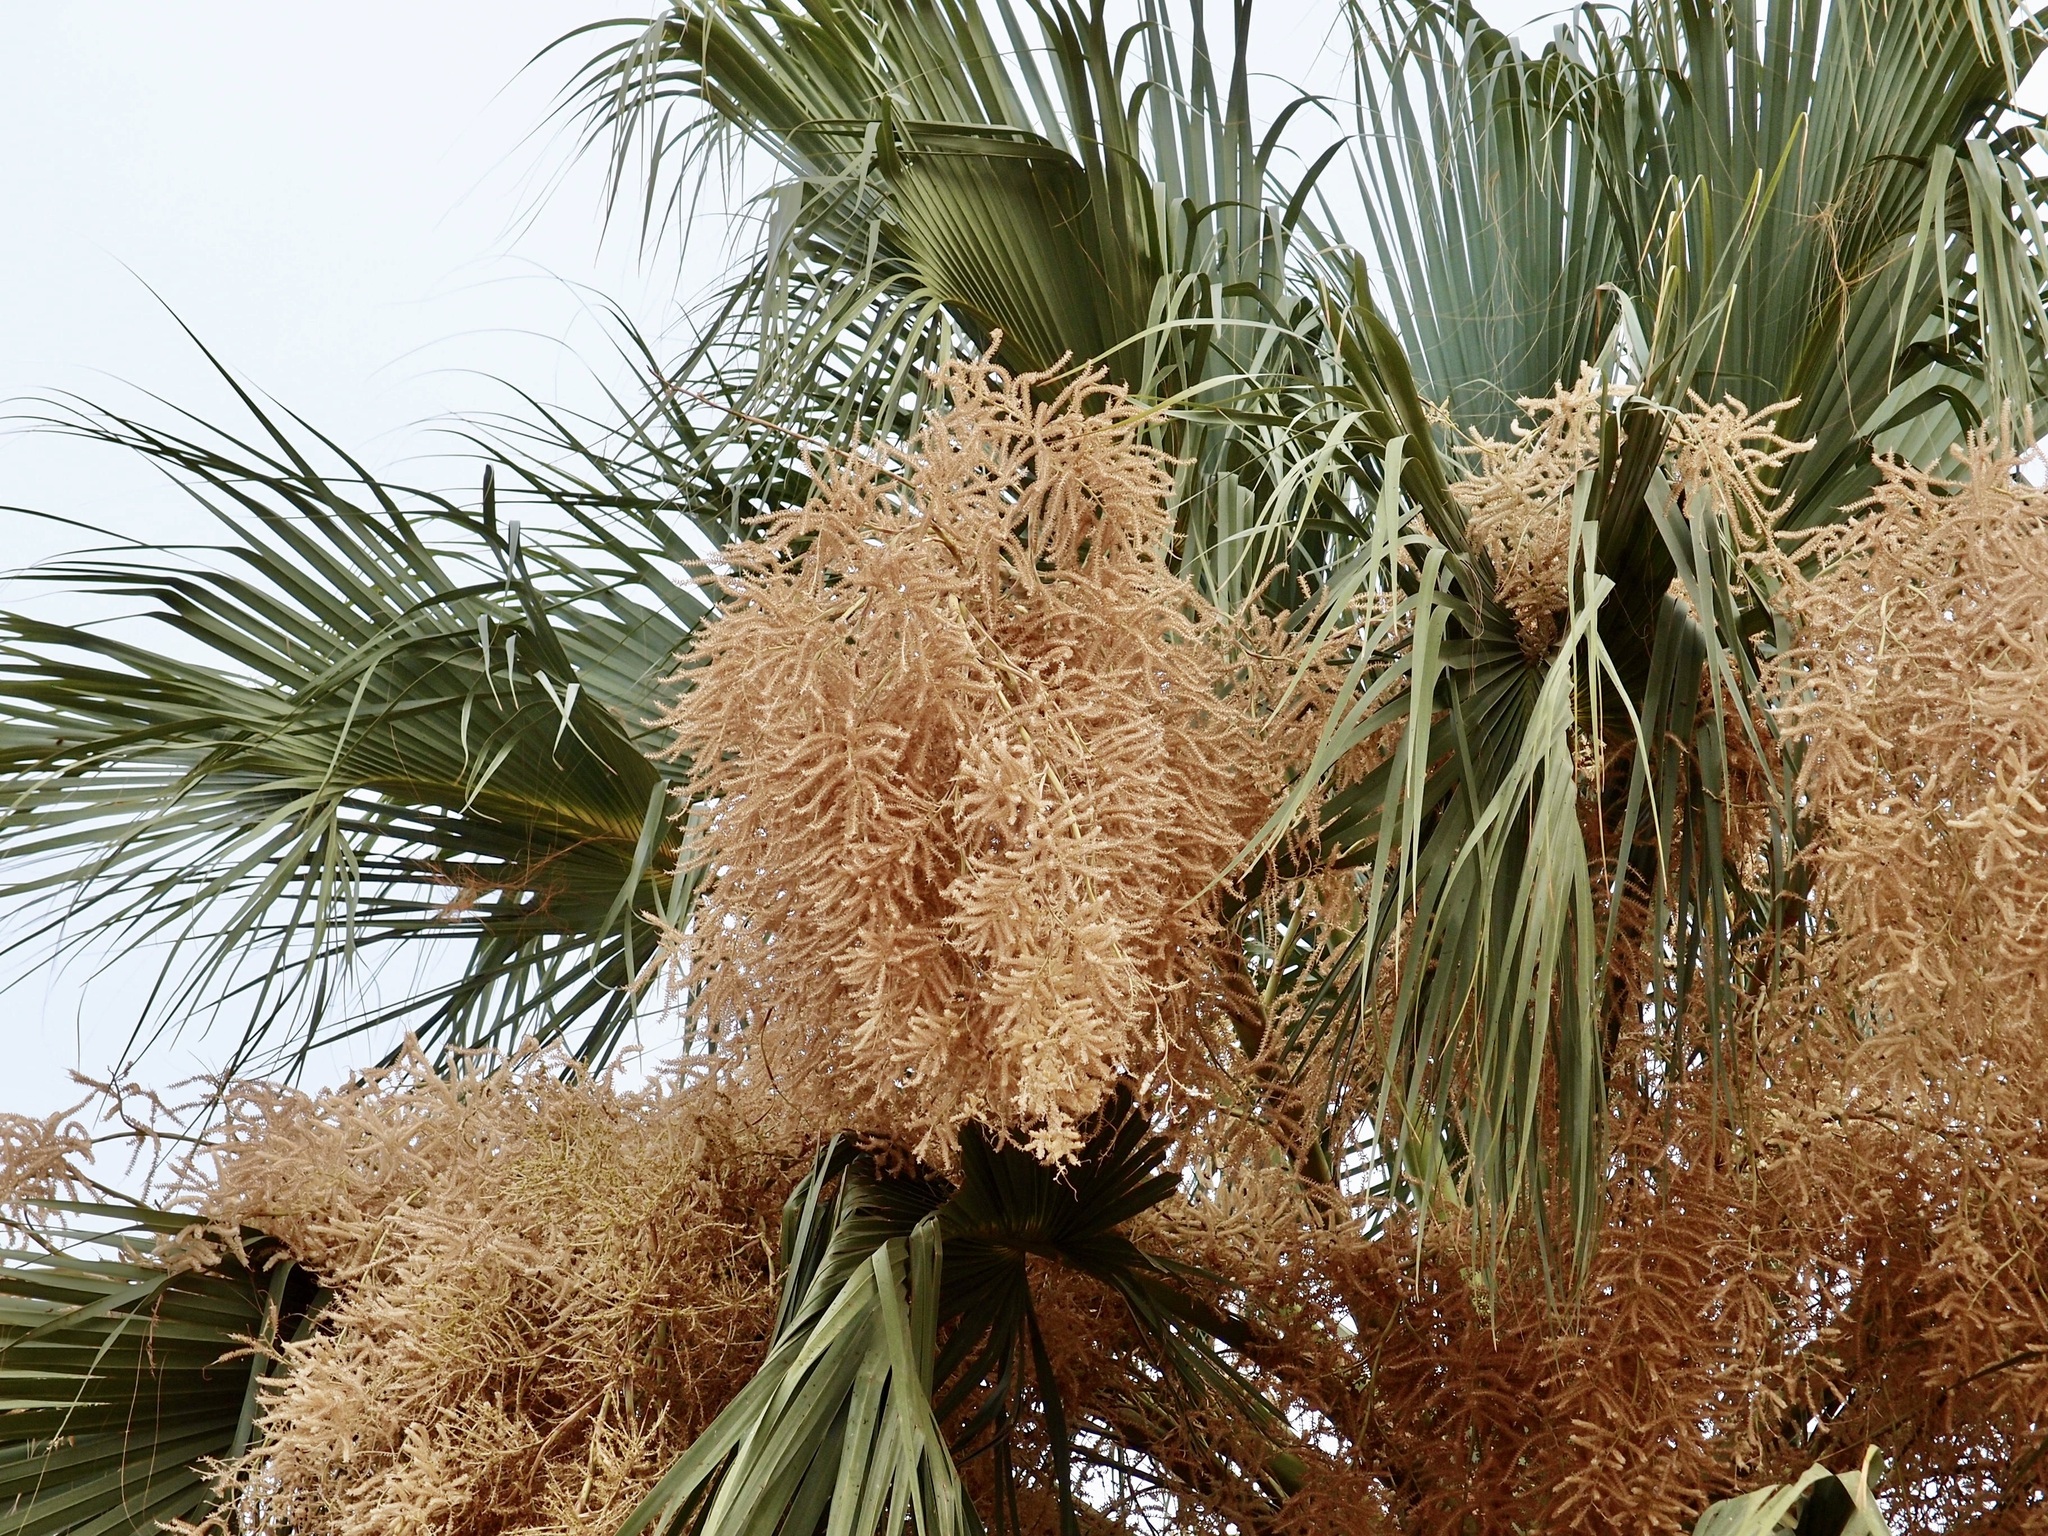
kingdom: Plantae
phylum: Tracheophyta
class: Liliopsida
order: Arecales
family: Arecaceae
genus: Sabal
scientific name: Sabal uresana
